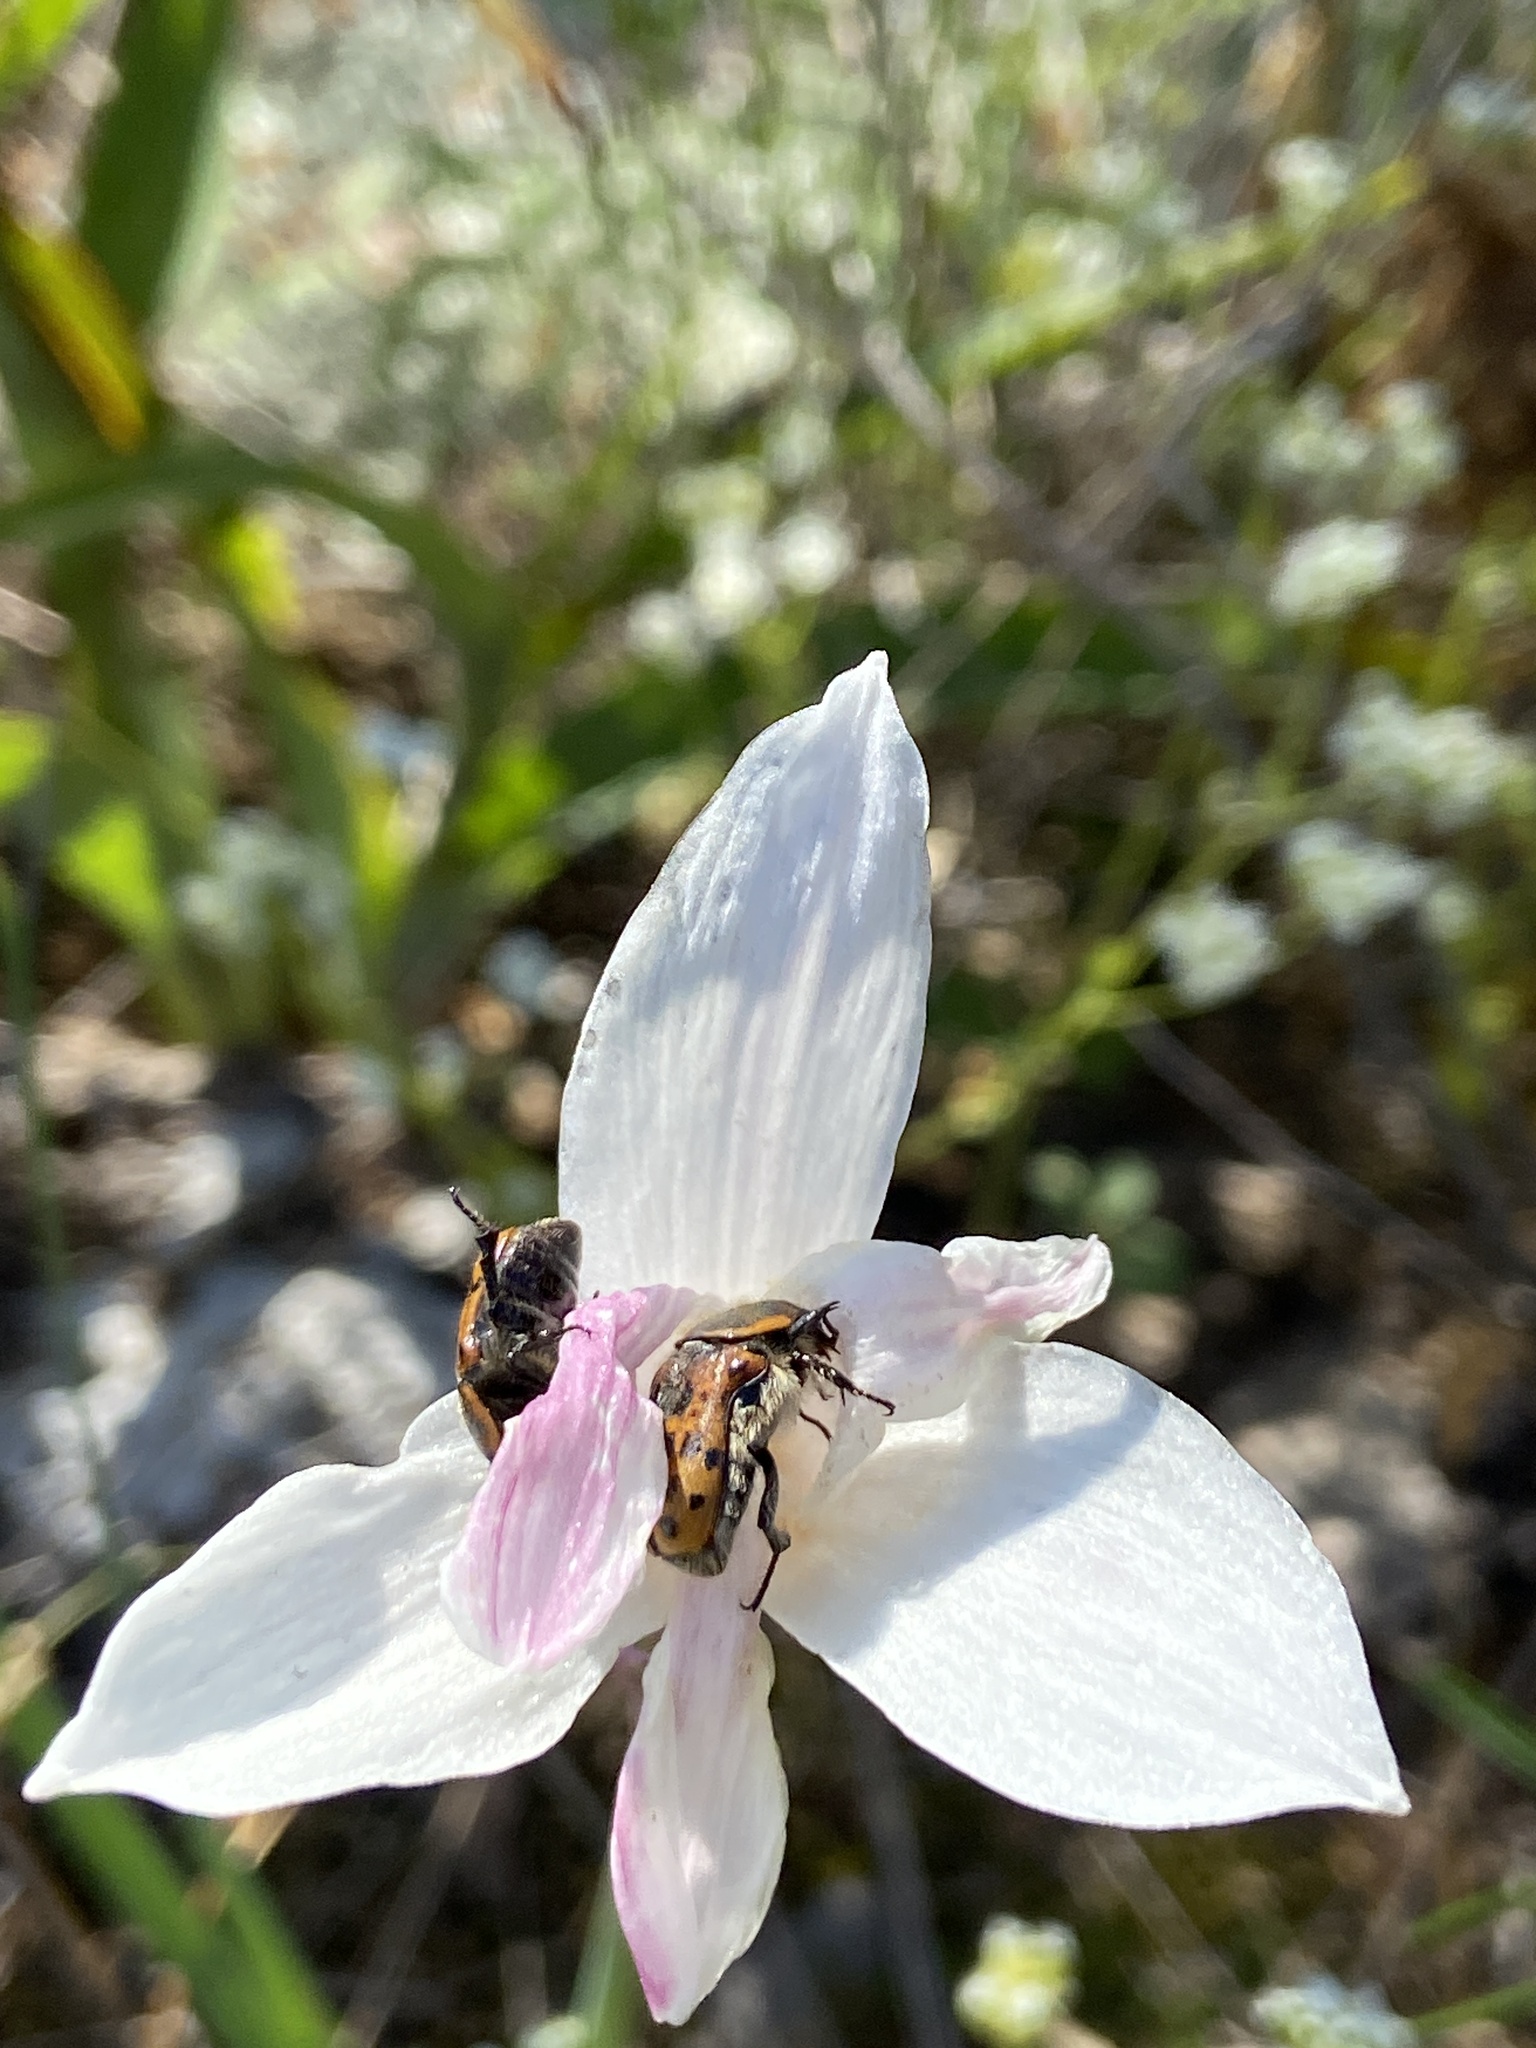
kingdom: Animalia
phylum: Arthropoda
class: Insecta
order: Coleoptera
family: Scarabaeidae
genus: Euphoria
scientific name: Euphoria kernii
